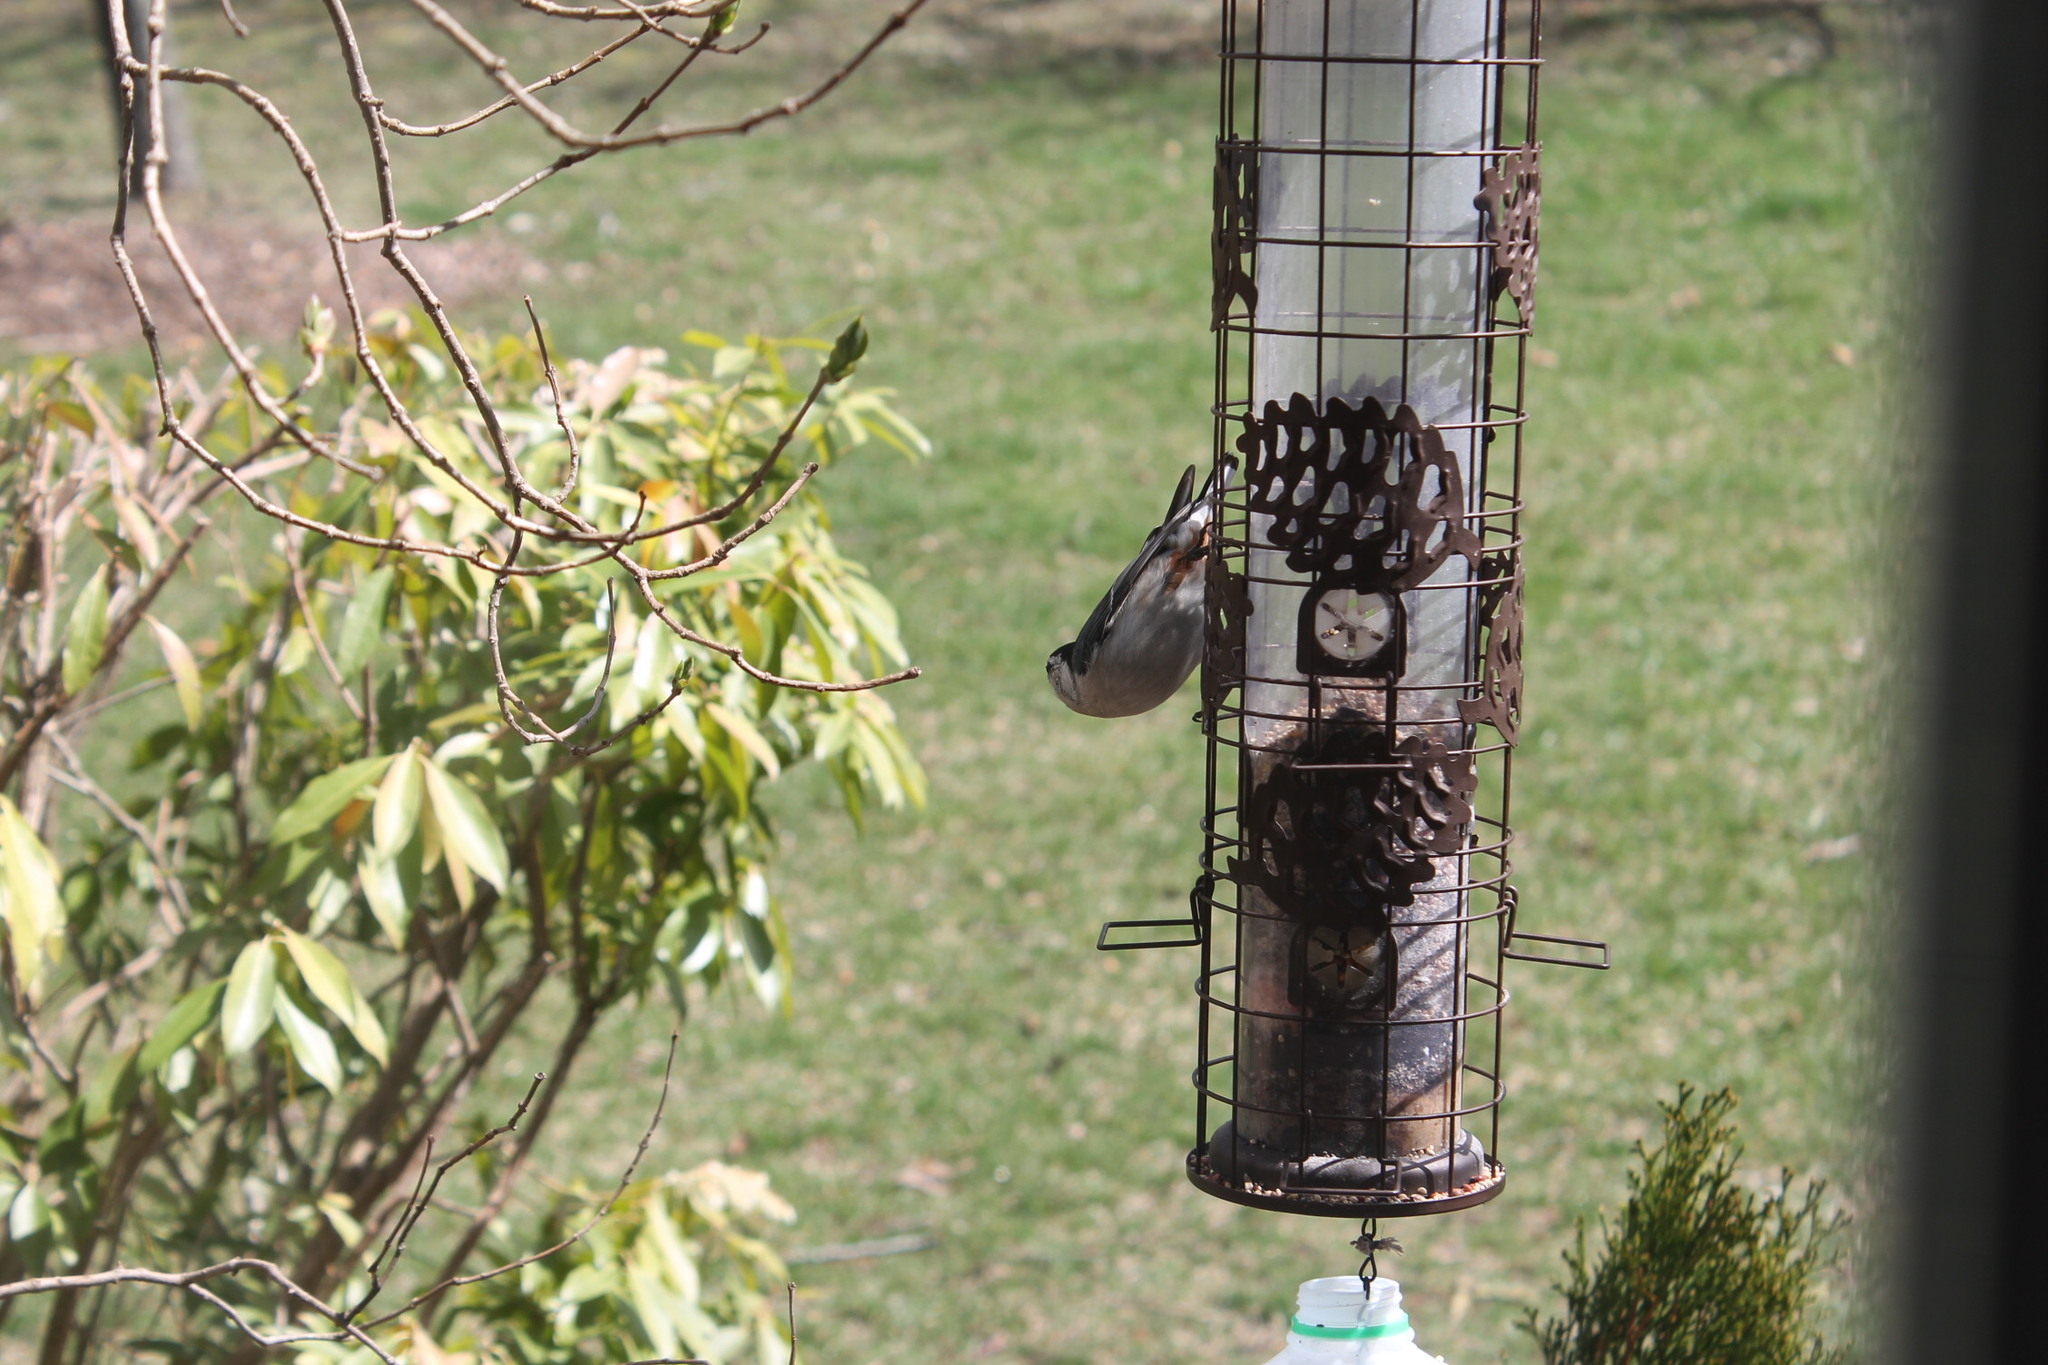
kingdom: Animalia
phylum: Chordata
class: Aves
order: Passeriformes
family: Sittidae
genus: Sitta
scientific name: Sitta carolinensis
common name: White-breasted nuthatch
